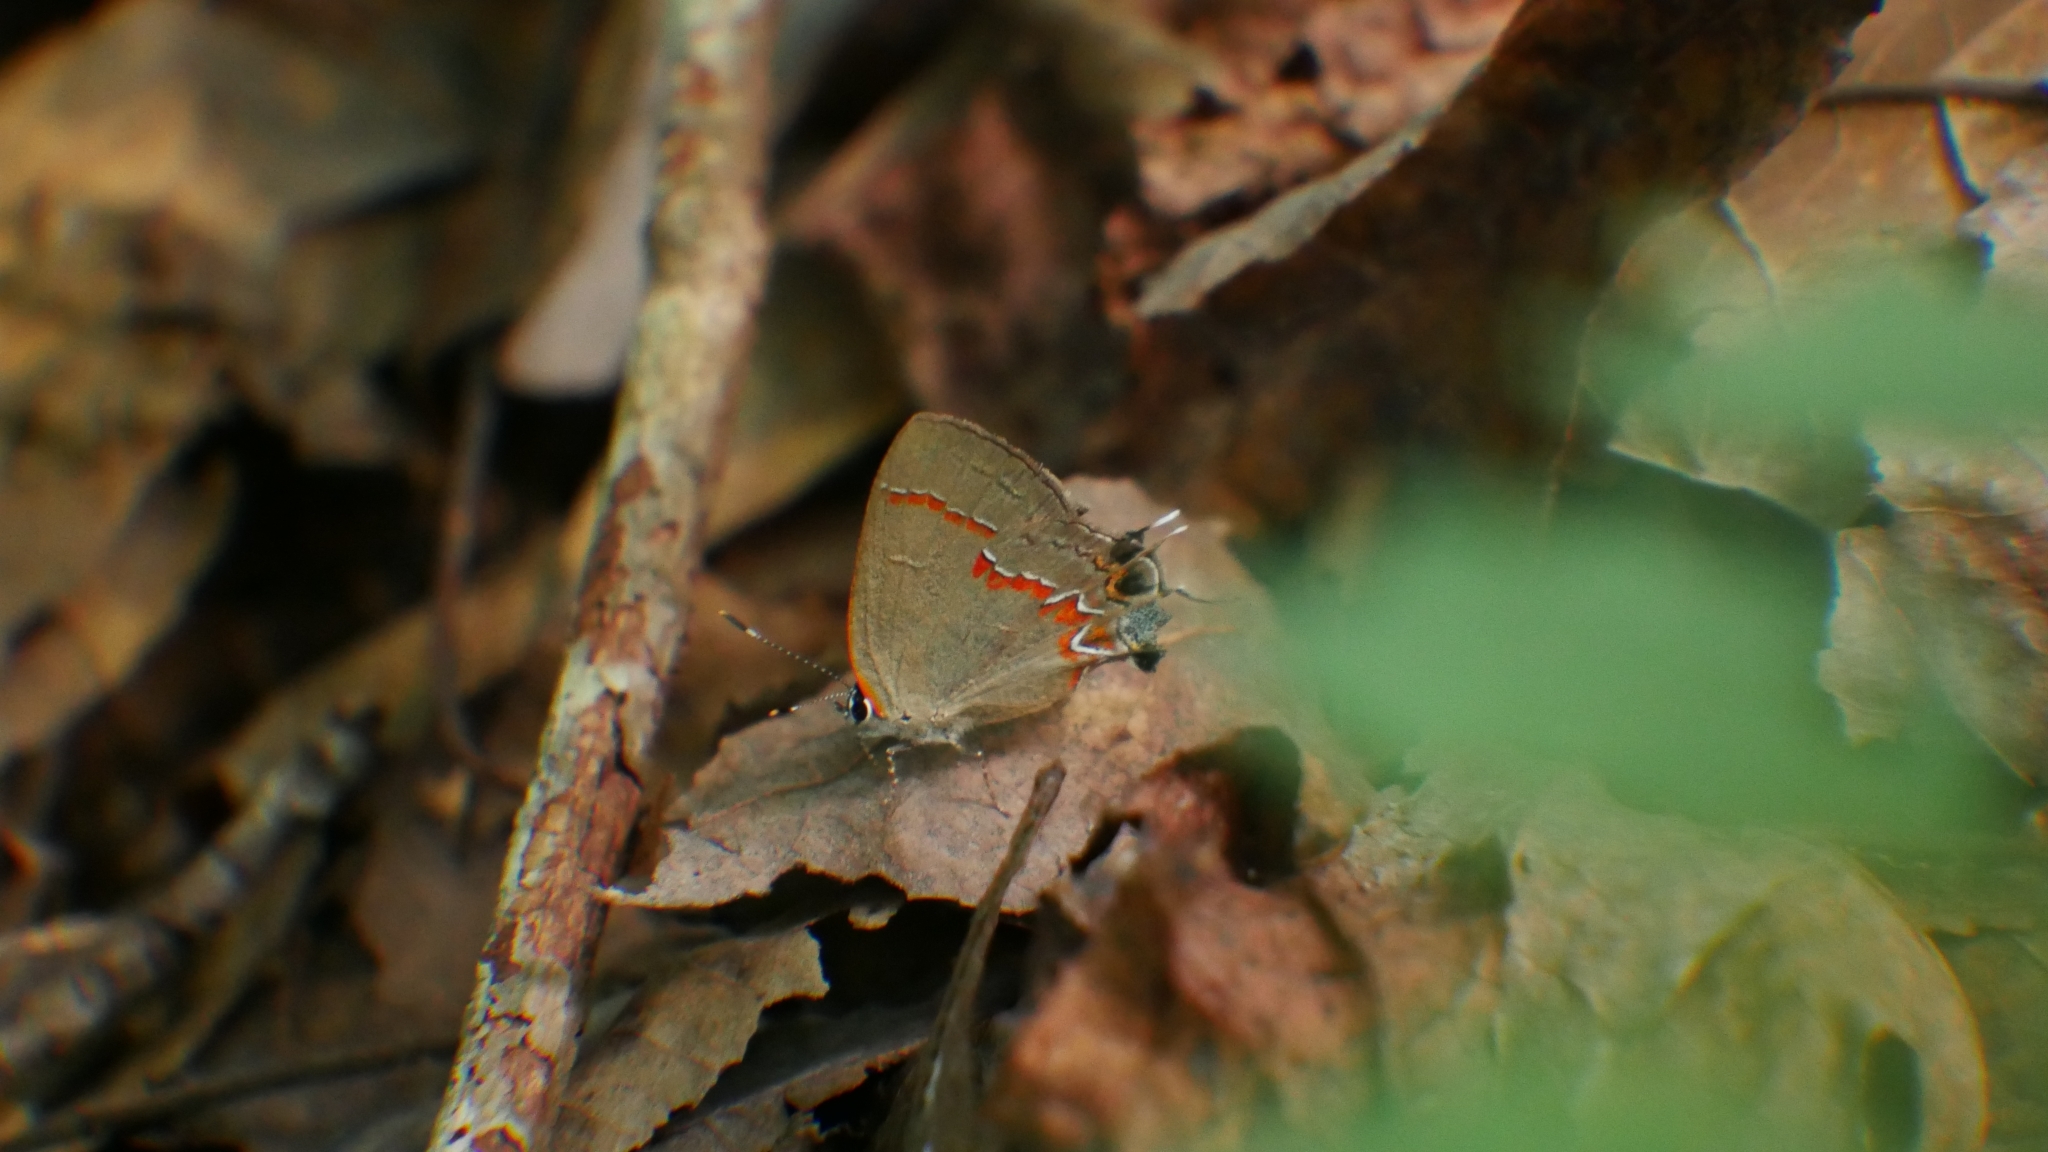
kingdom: Animalia
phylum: Arthropoda
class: Insecta
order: Lepidoptera
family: Lycaenidae
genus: Calycopis
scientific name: Calycopis cecrops
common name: Red-banded hairstreak
